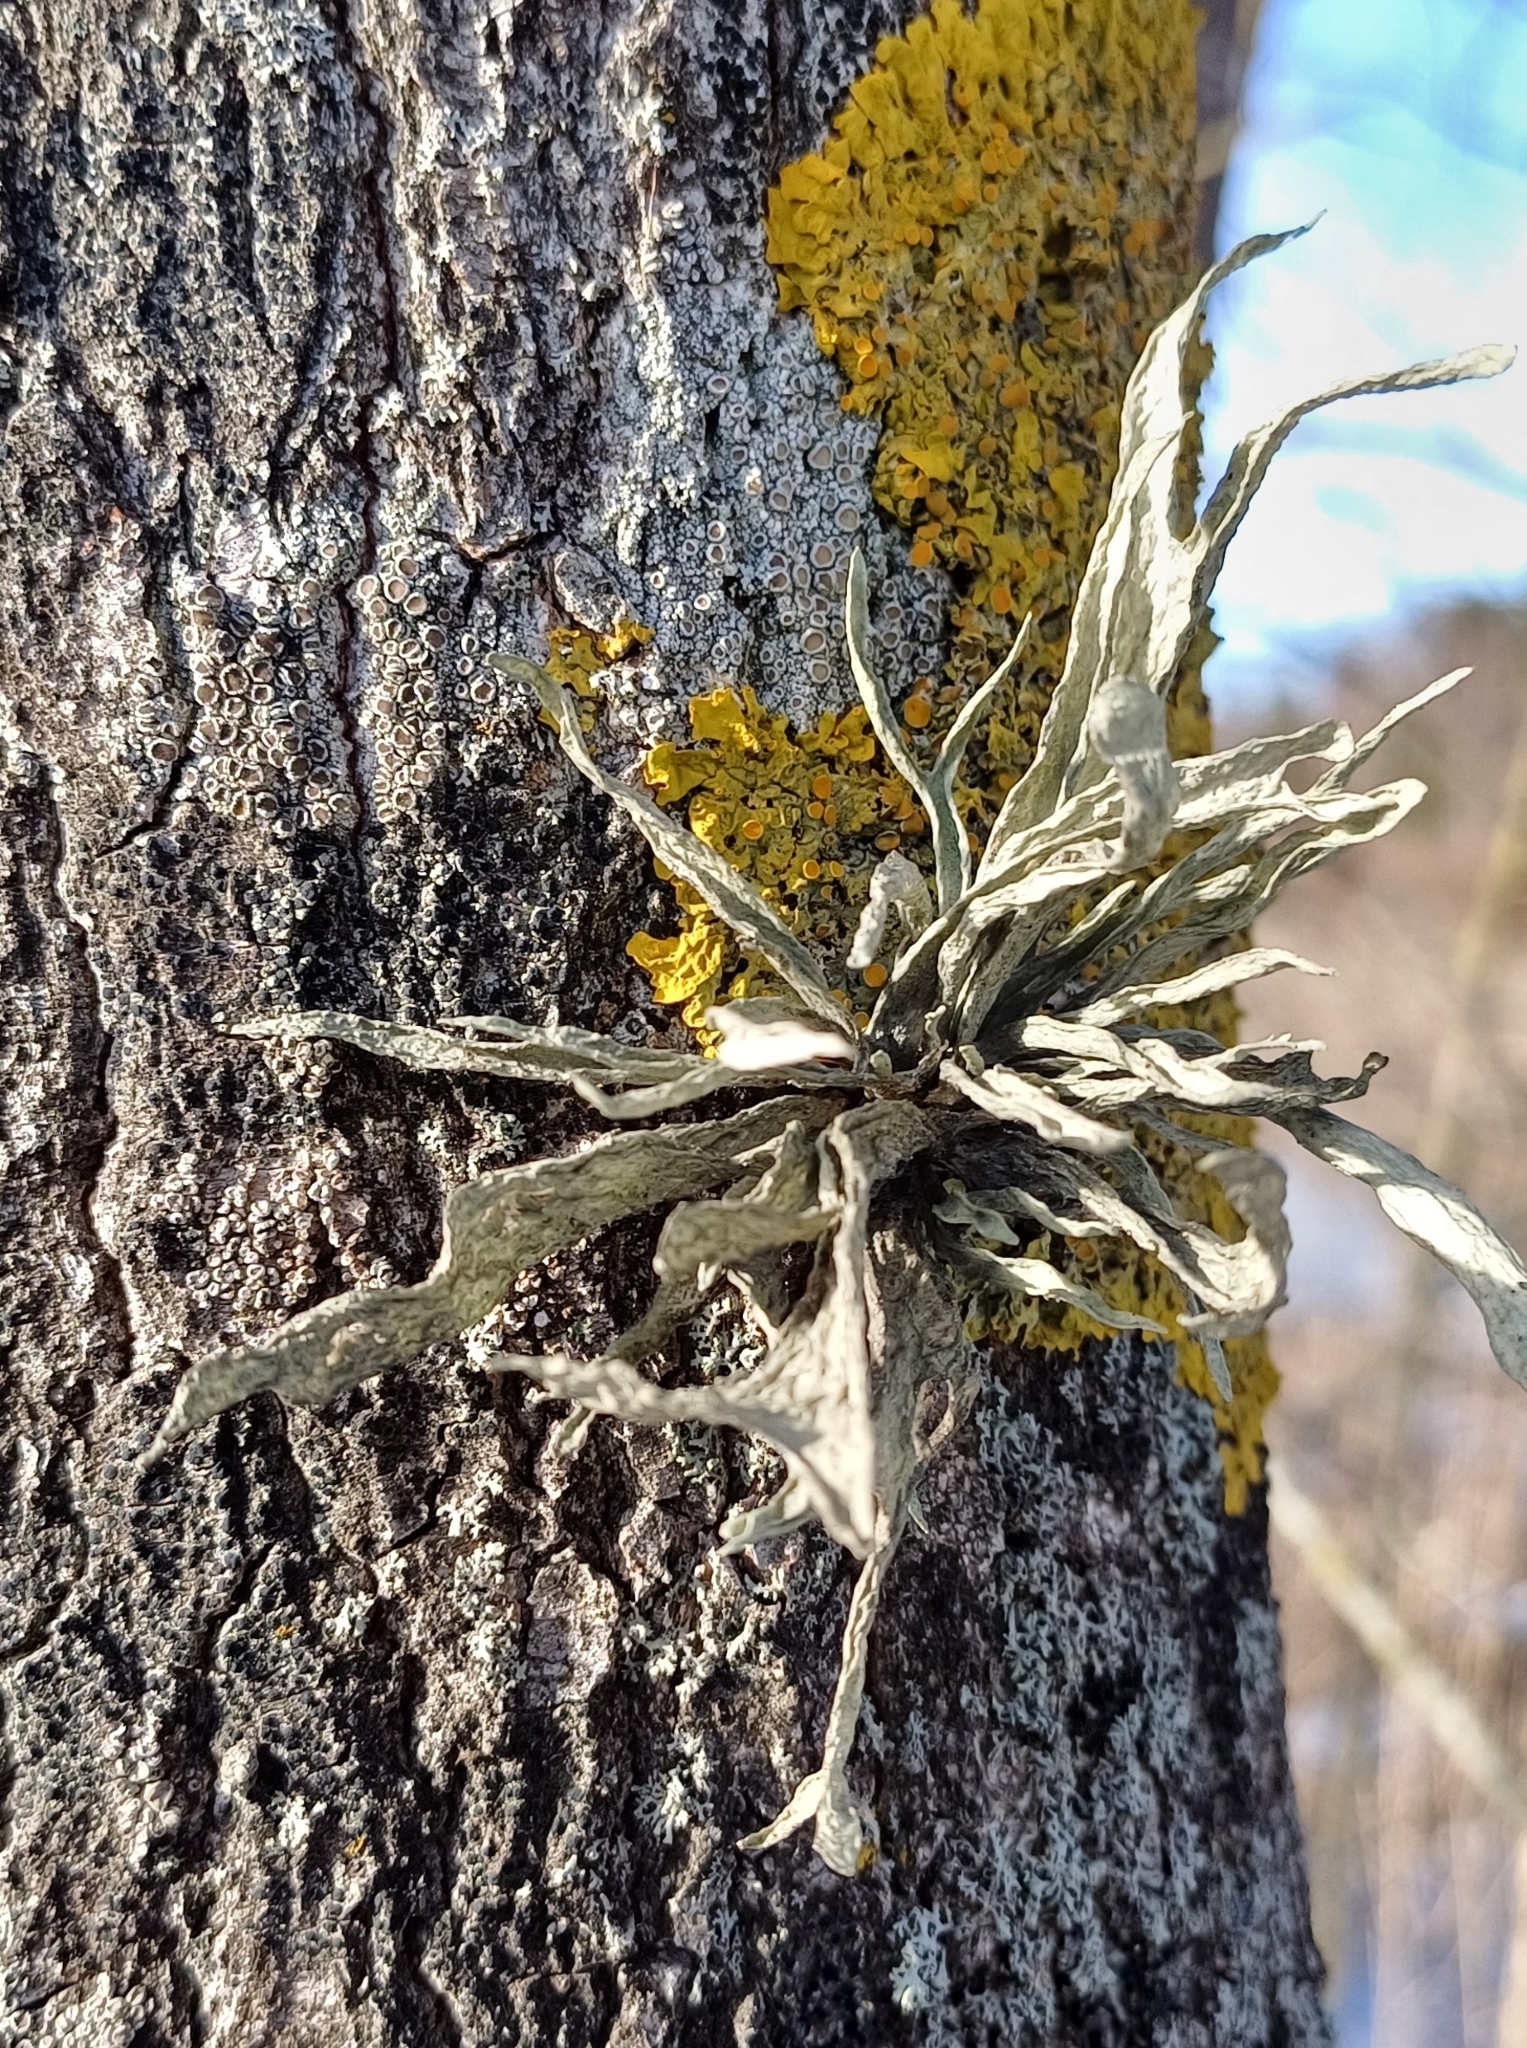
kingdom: Fungi
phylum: Ascomycota
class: Lecanoromycetes
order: Lecanorales
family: Ramalinaceae
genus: Ramalina
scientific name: Ramalina fraxinea
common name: Cartilage lichen
